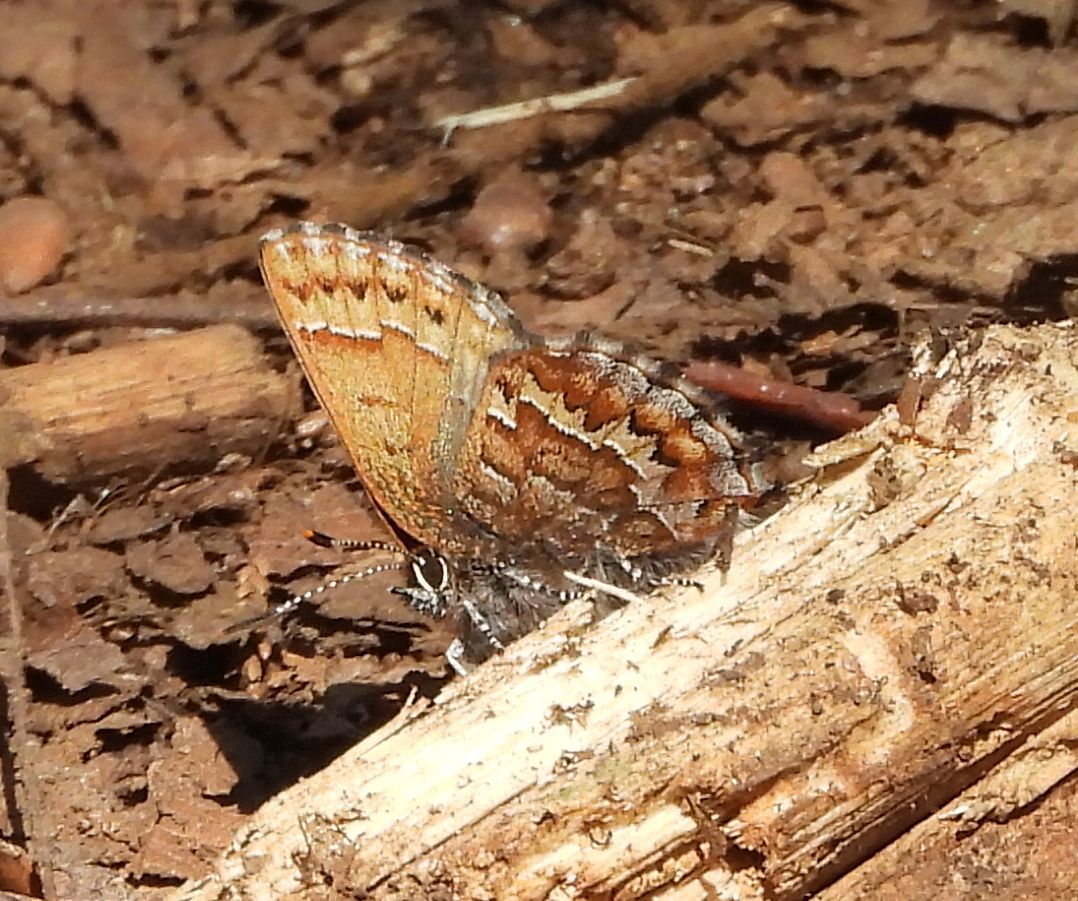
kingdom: Animalia
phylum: Arthropoda
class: Insecta
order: Lepidoptera
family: Lycaenidae
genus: Incisalia
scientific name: Incisalia niphon
